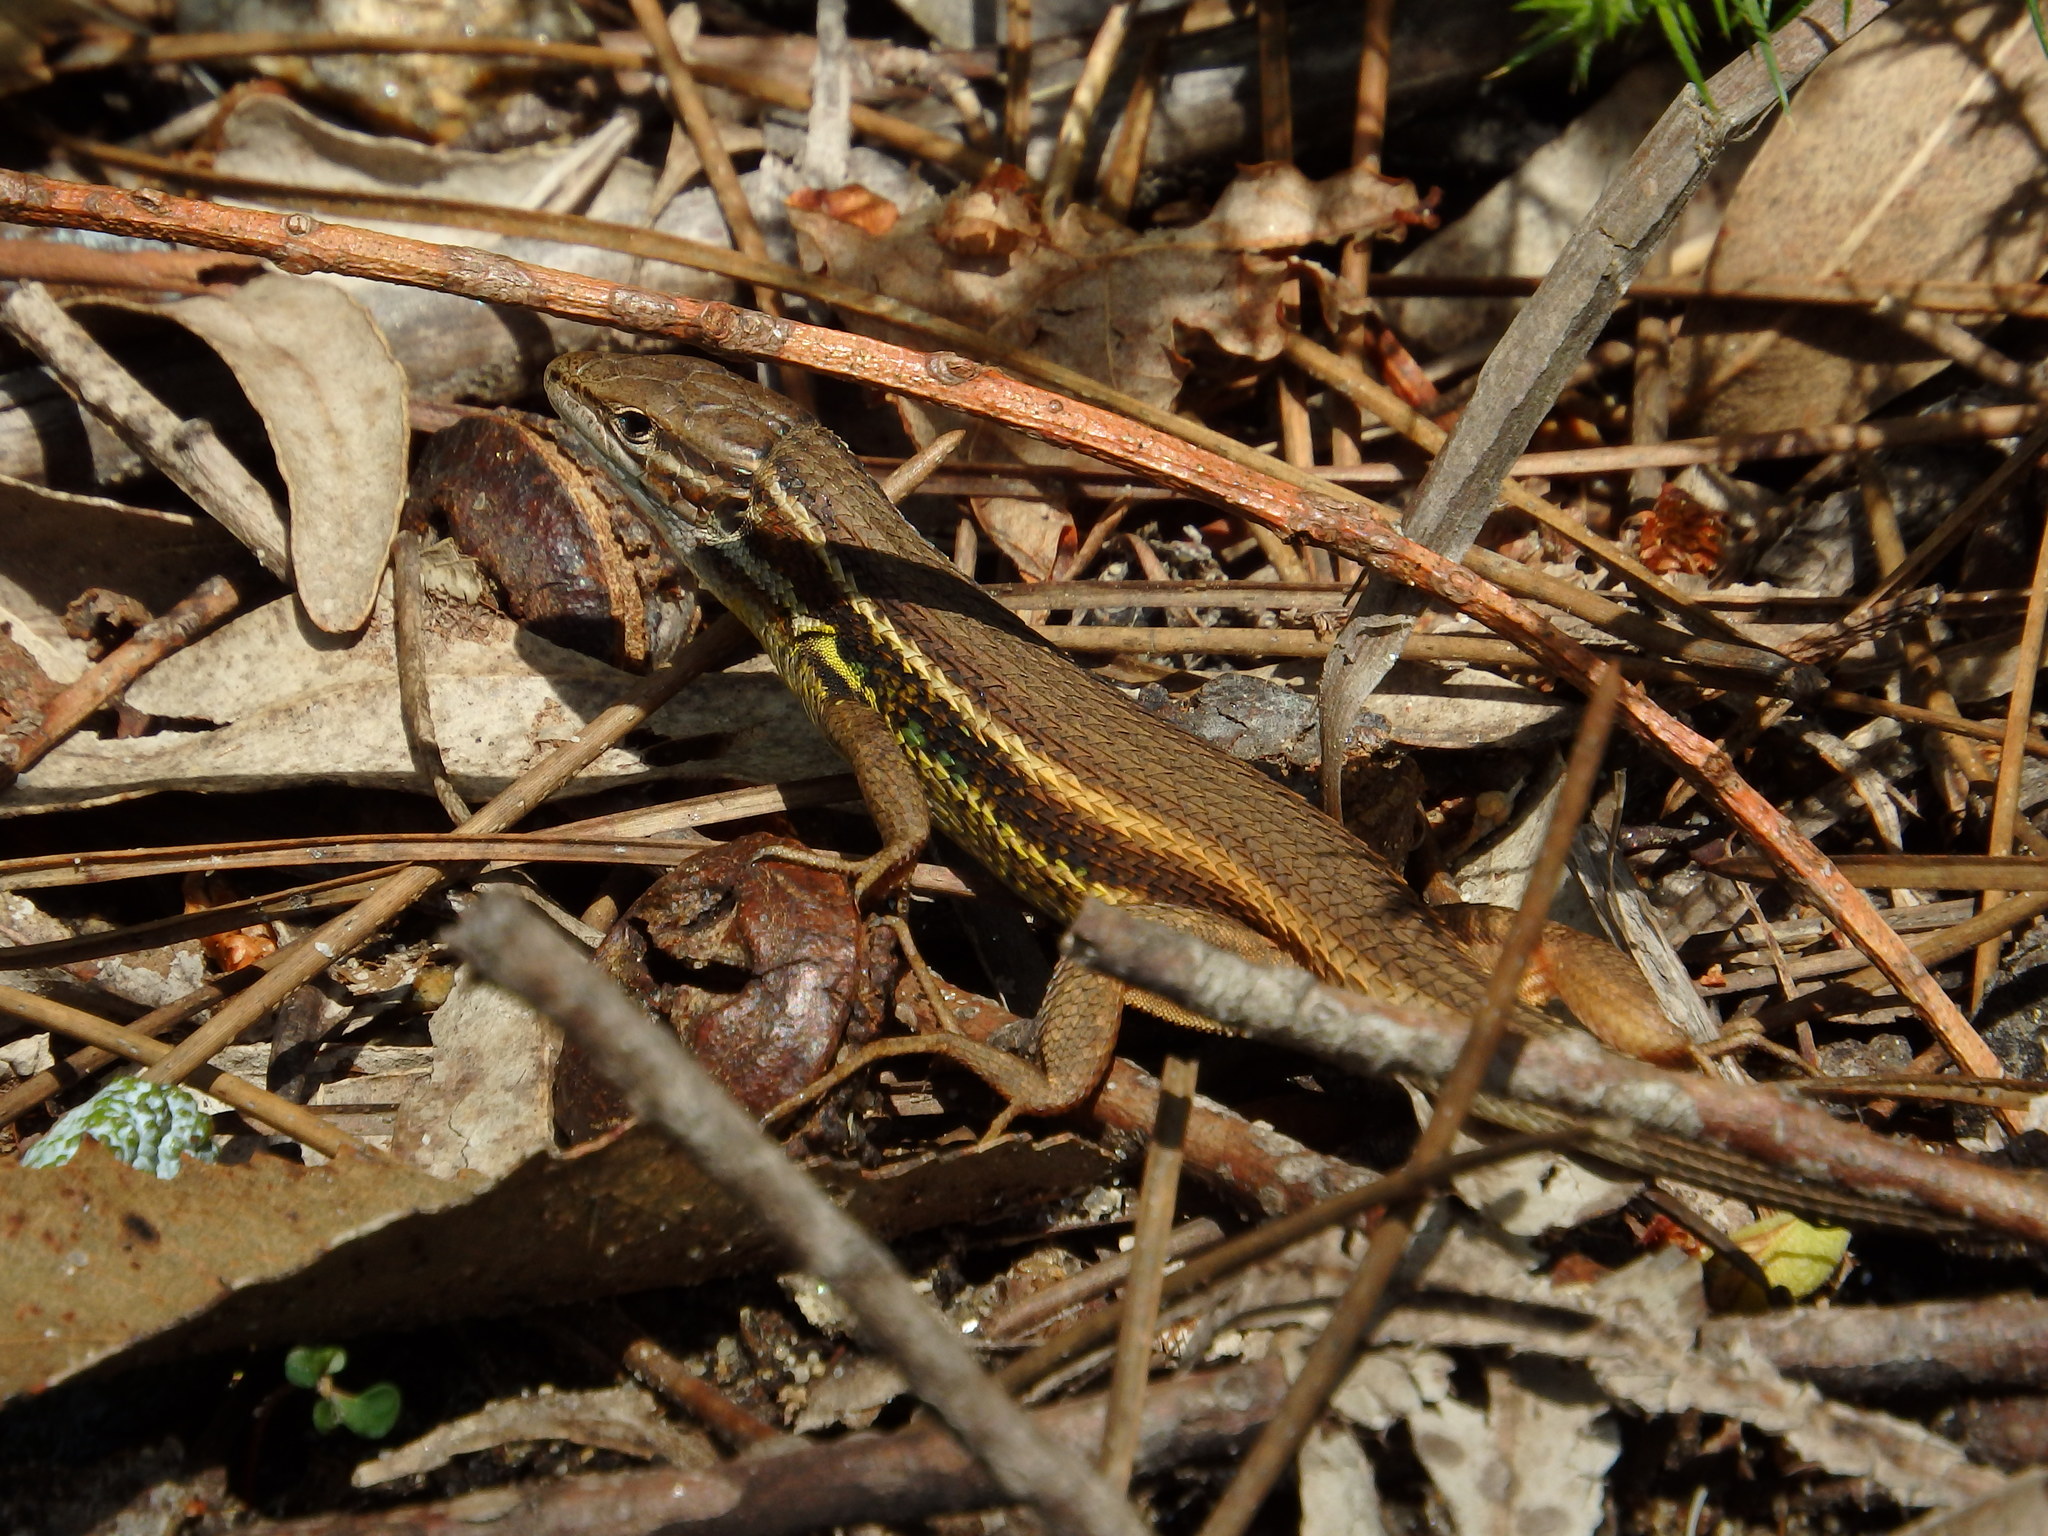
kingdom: Animalia
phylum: Chordata
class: Squamata
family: Lacertidae
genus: Psammodromus
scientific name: Psammodromus algirus
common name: Algerian psammodromus
